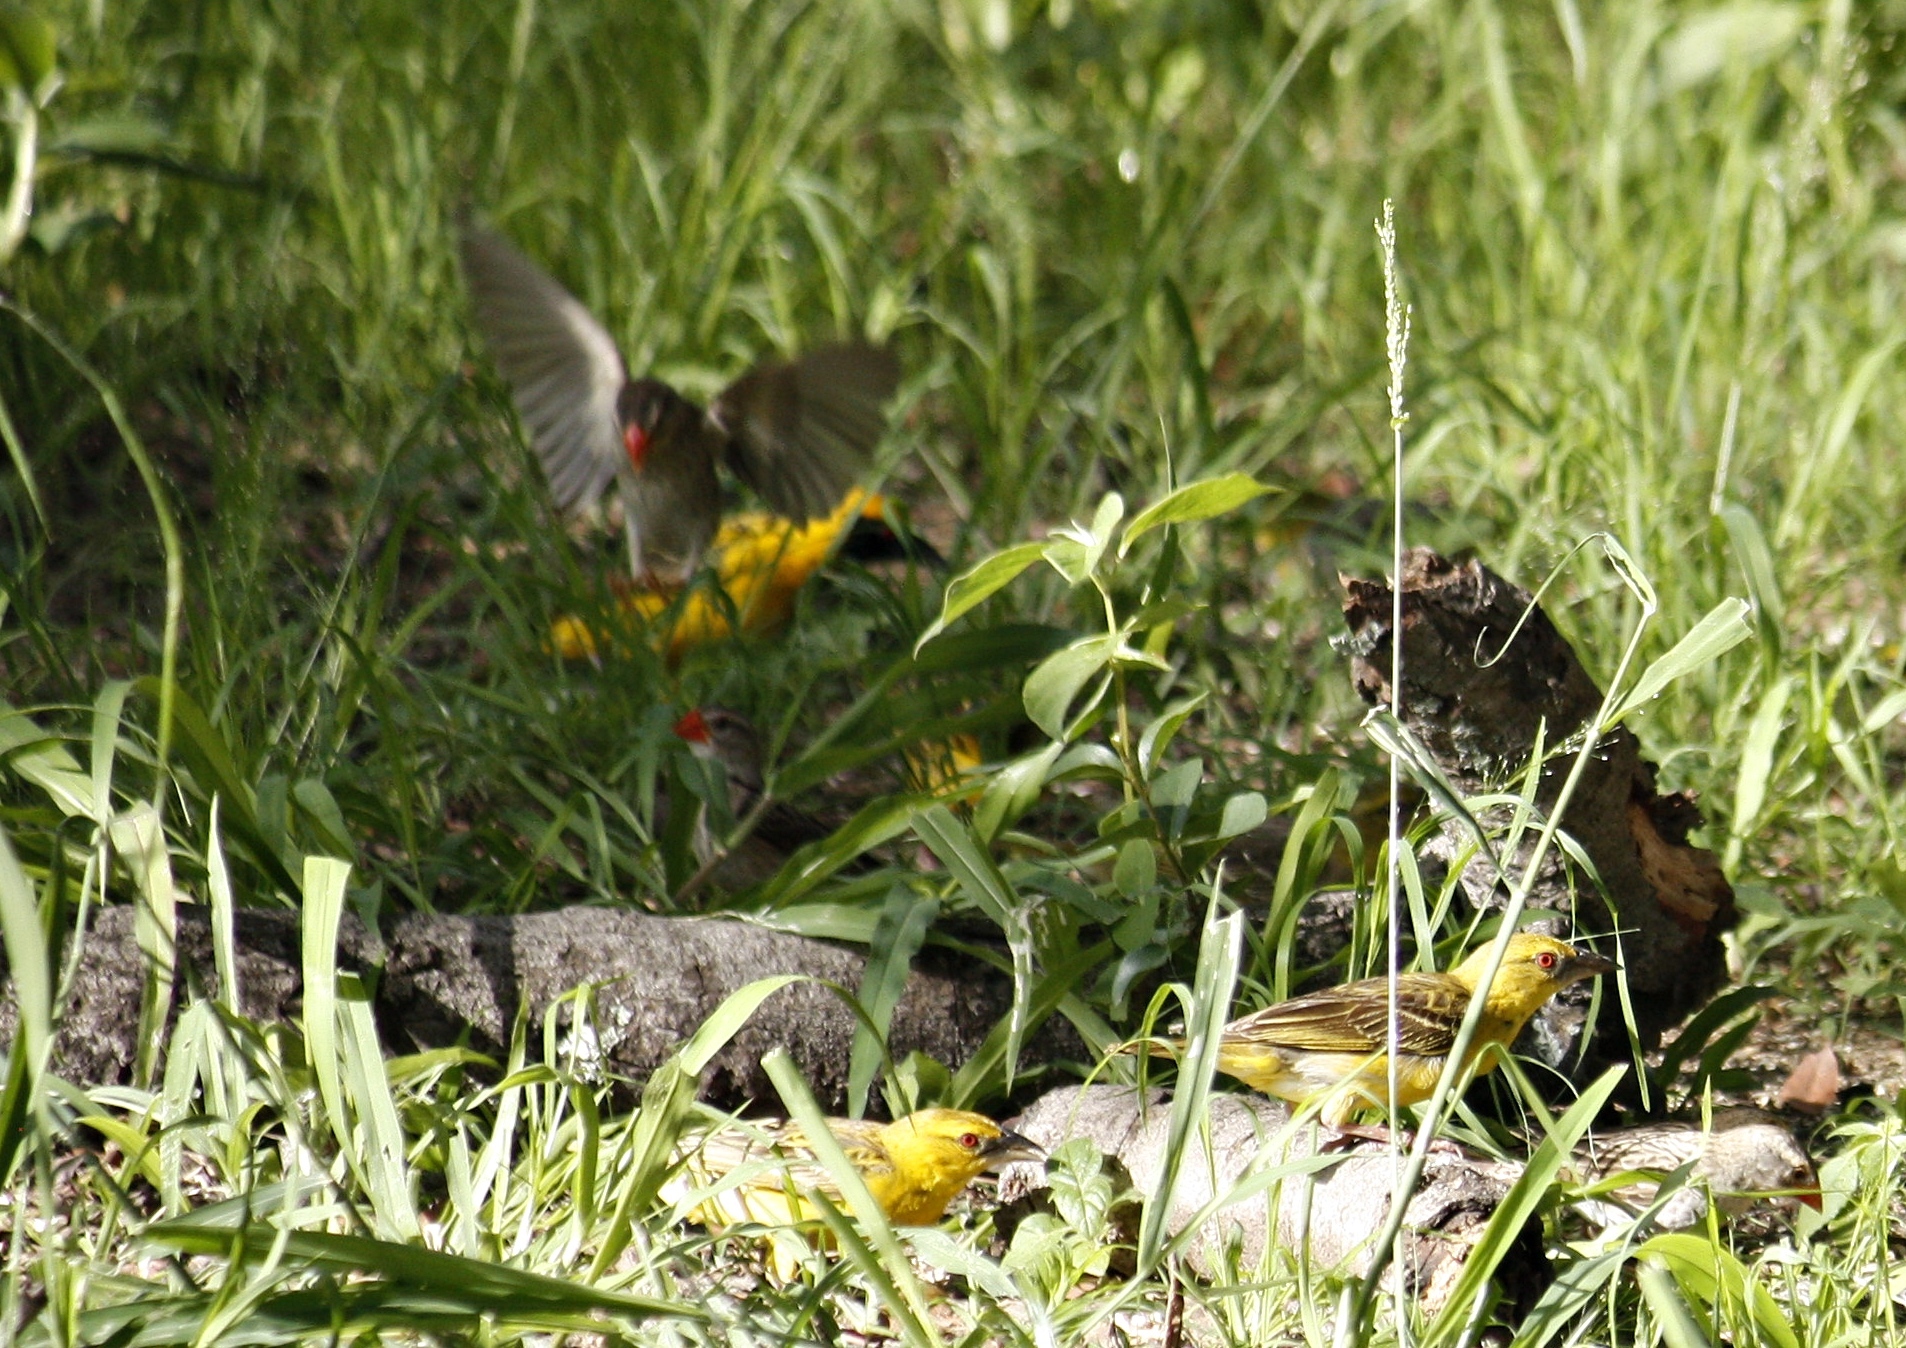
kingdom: Animalia
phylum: Chordata
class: Aves
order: Passeriformes
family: Ploceidae
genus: Quelea
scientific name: Quelea quelea
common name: Red-billed quelea
